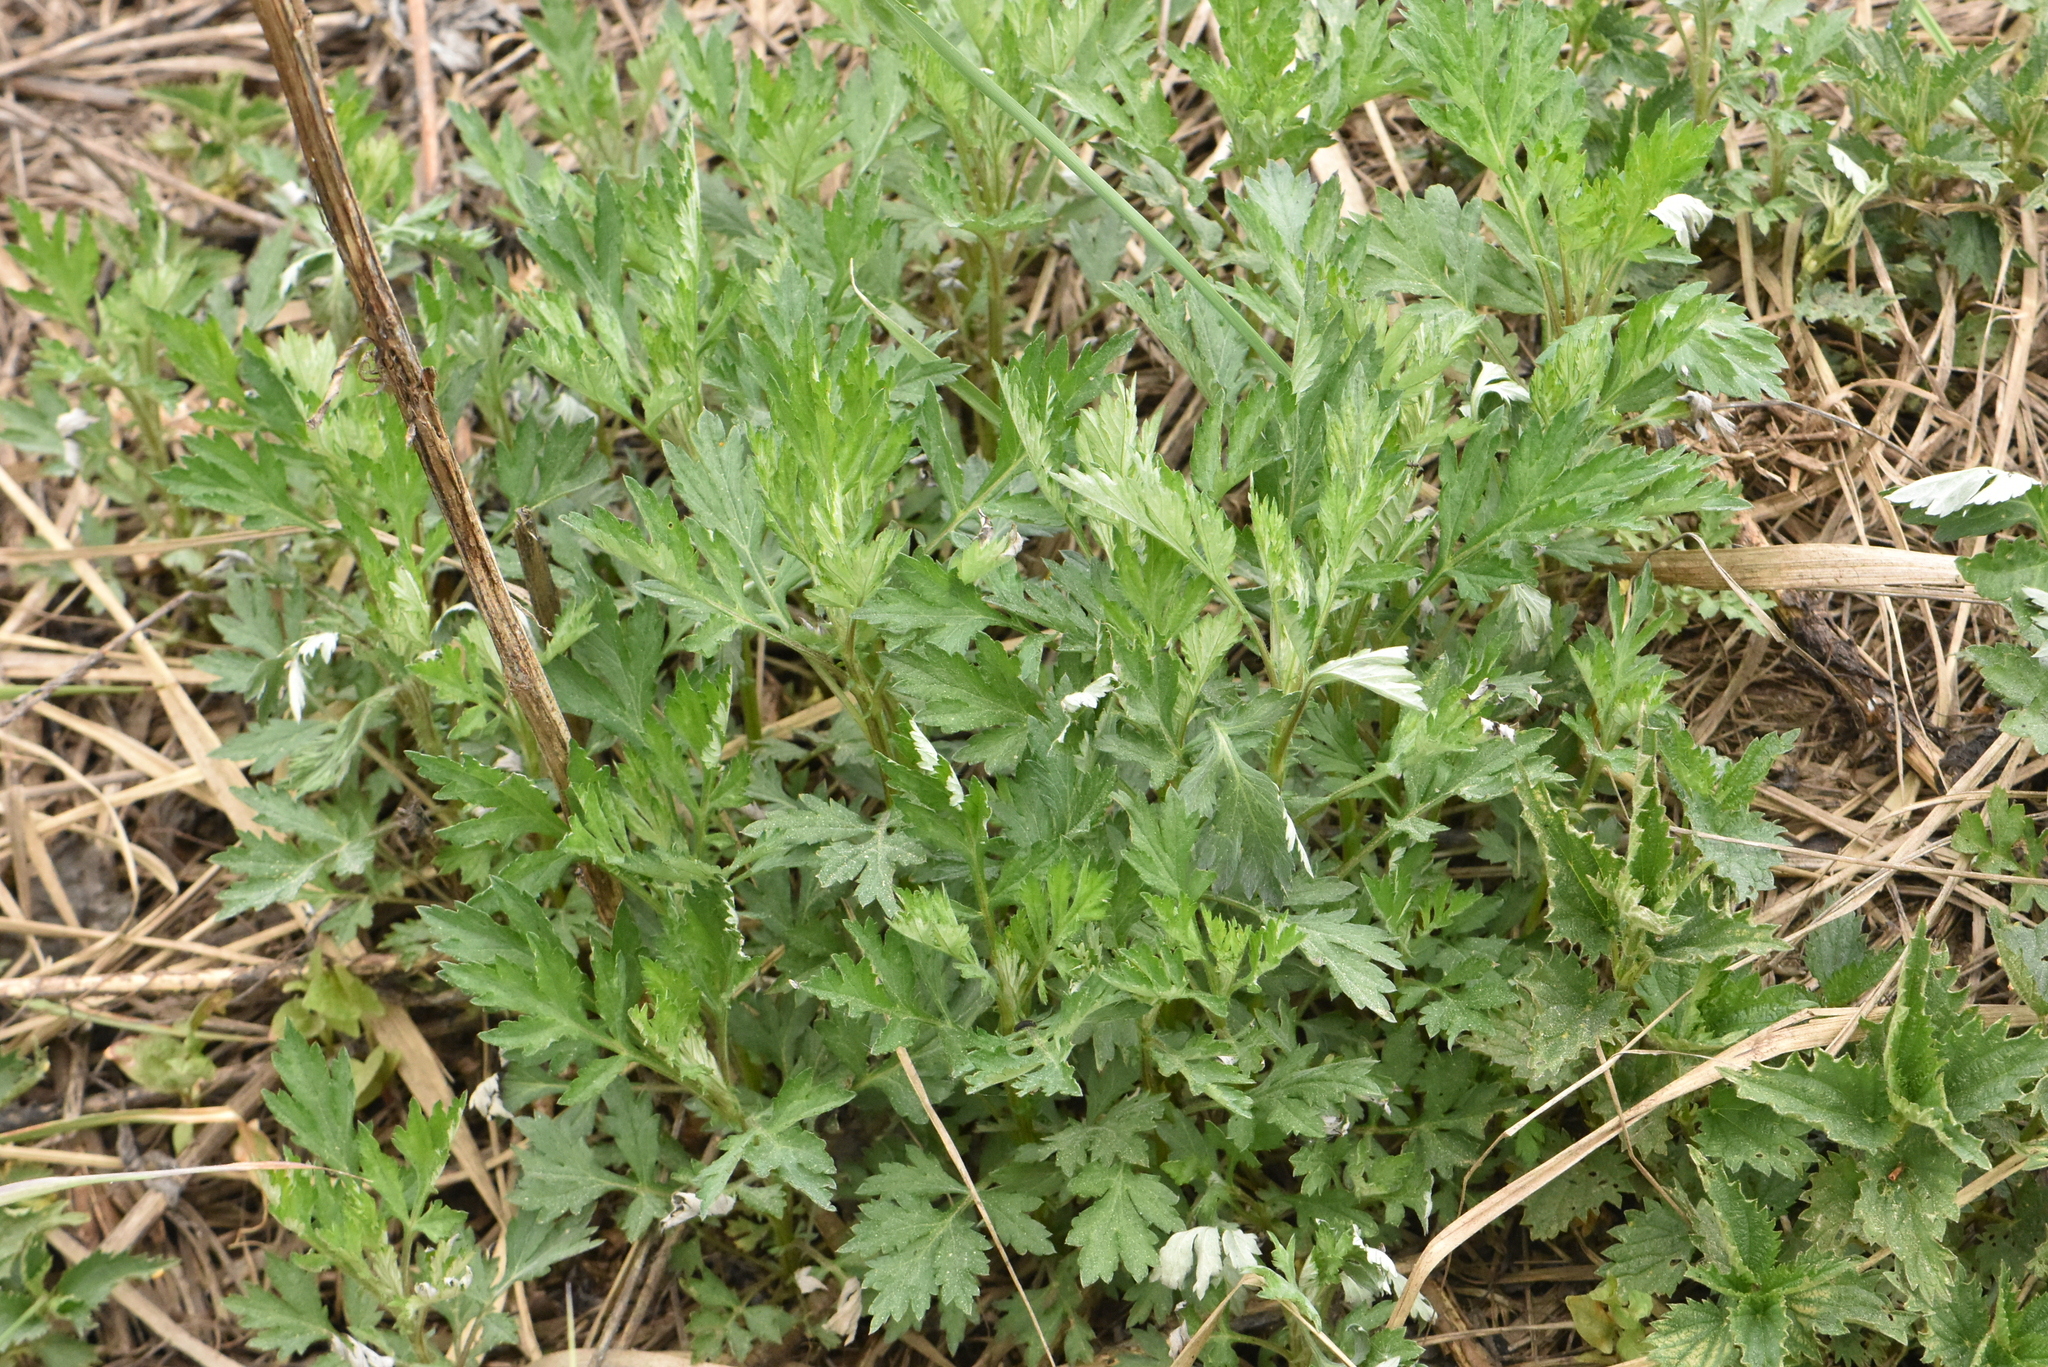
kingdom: Plantae
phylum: Tracheophyta
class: Magnoliopsida
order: Asterales
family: Asteraceae
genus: Artemisia
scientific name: Artemisia vulgaris
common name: Mugwort
